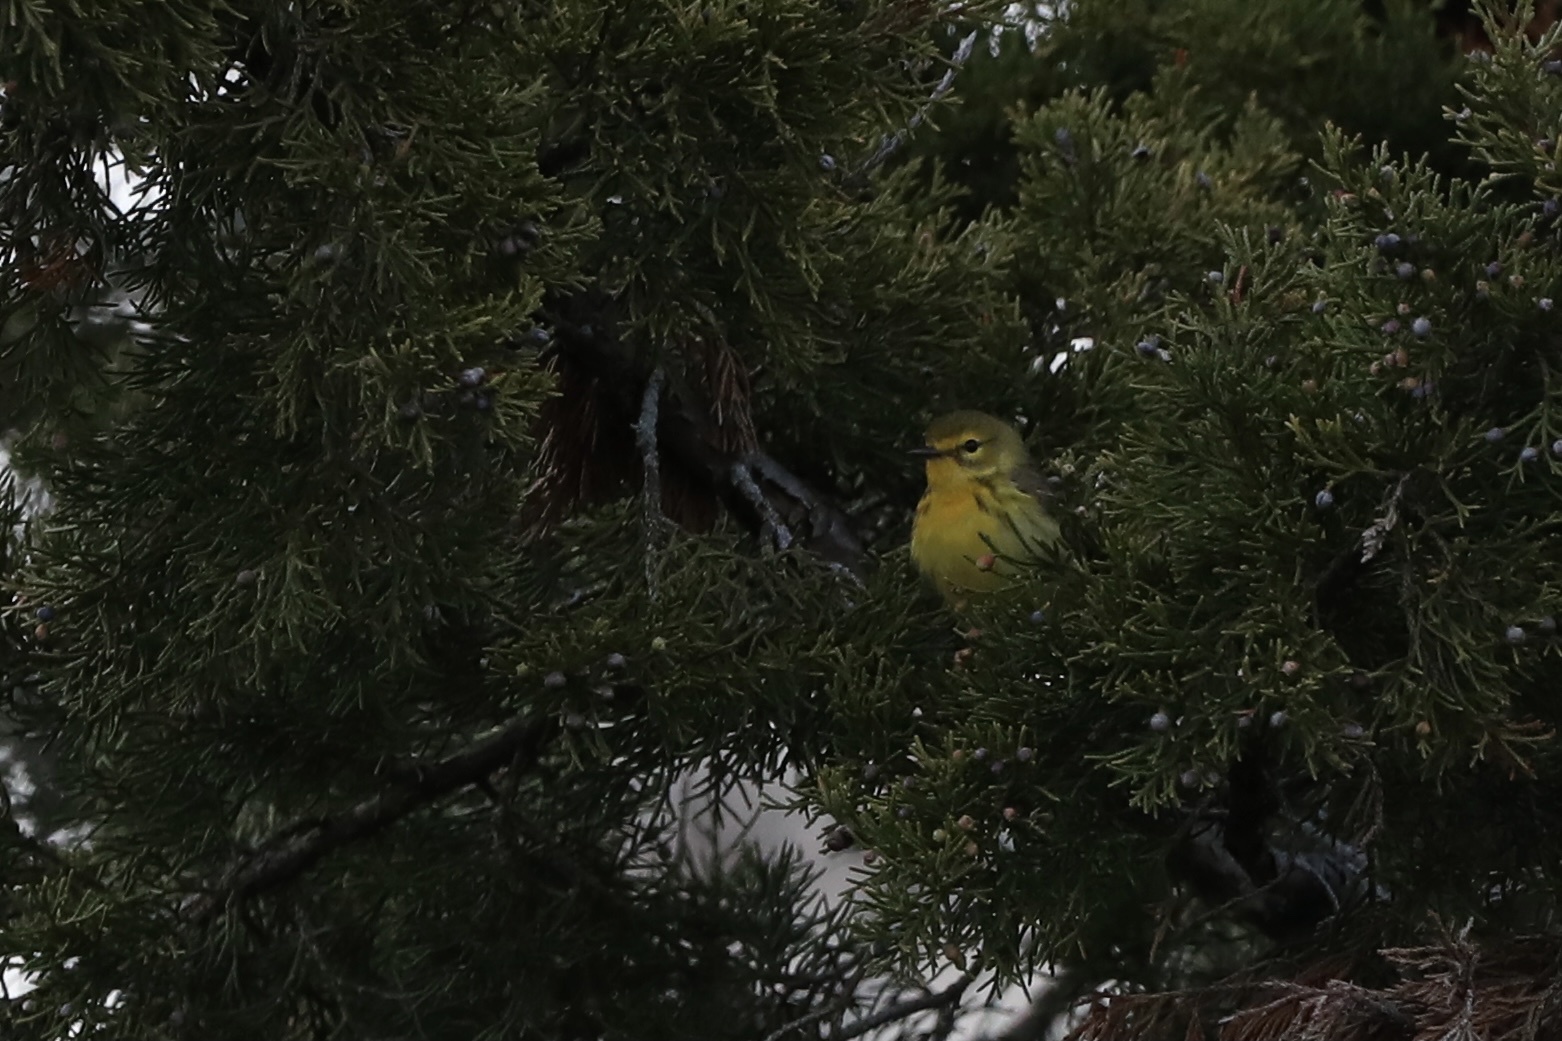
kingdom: Animalia
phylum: Chordata
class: Aves
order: Passeriformes
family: Parulidae
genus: Setophaga
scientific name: Setophaga discolor
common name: Prairie warbler
